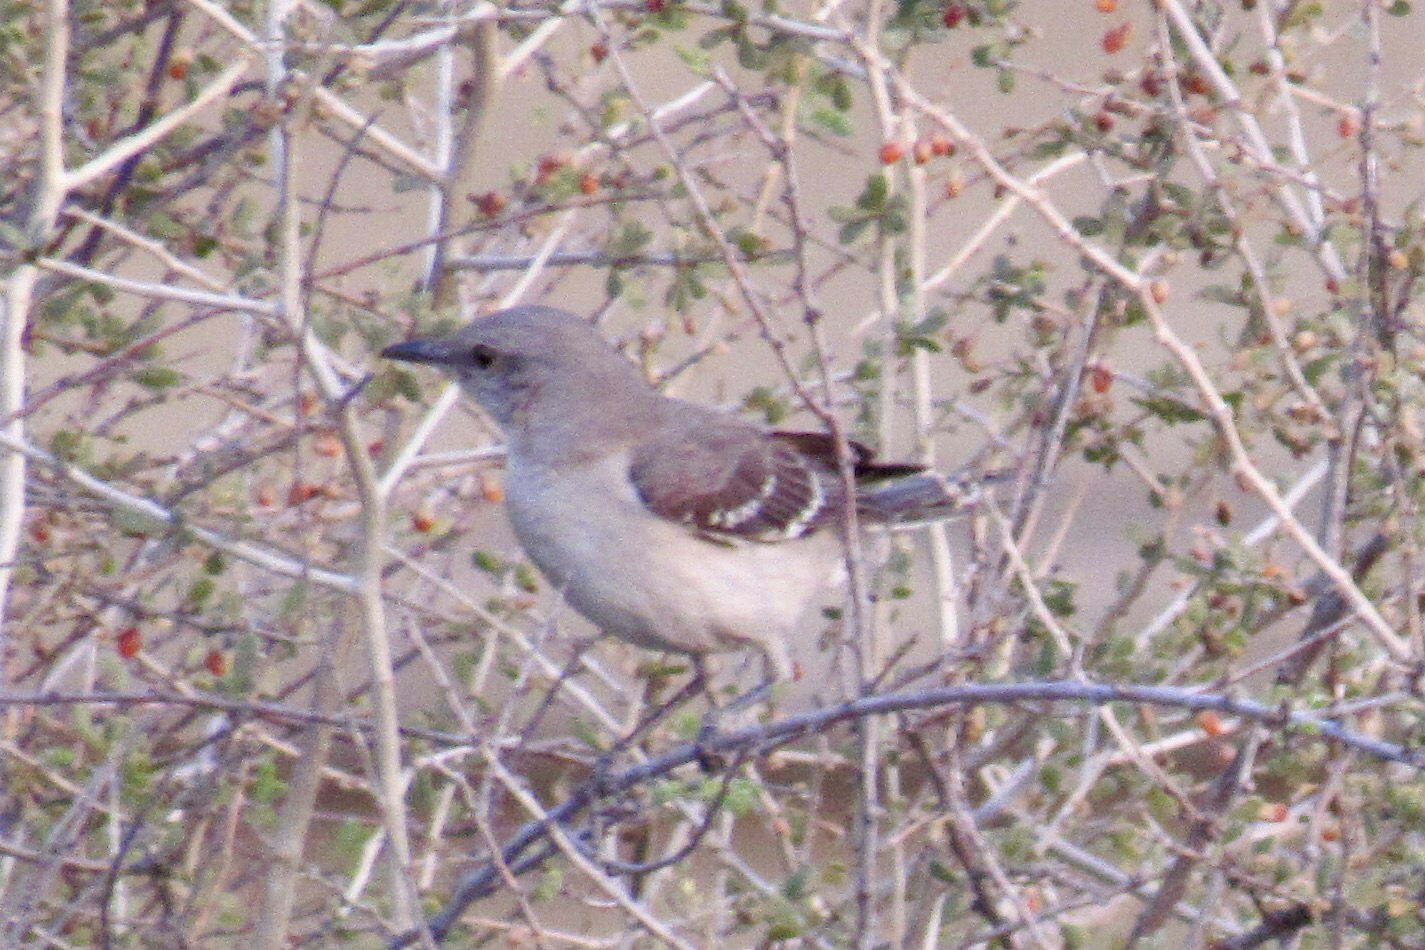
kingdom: Animalia
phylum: Chordata
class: Aves
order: Passeriformes
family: Mimidae
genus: Mimus
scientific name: Mimus polyglottos
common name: Northern mockingbird
